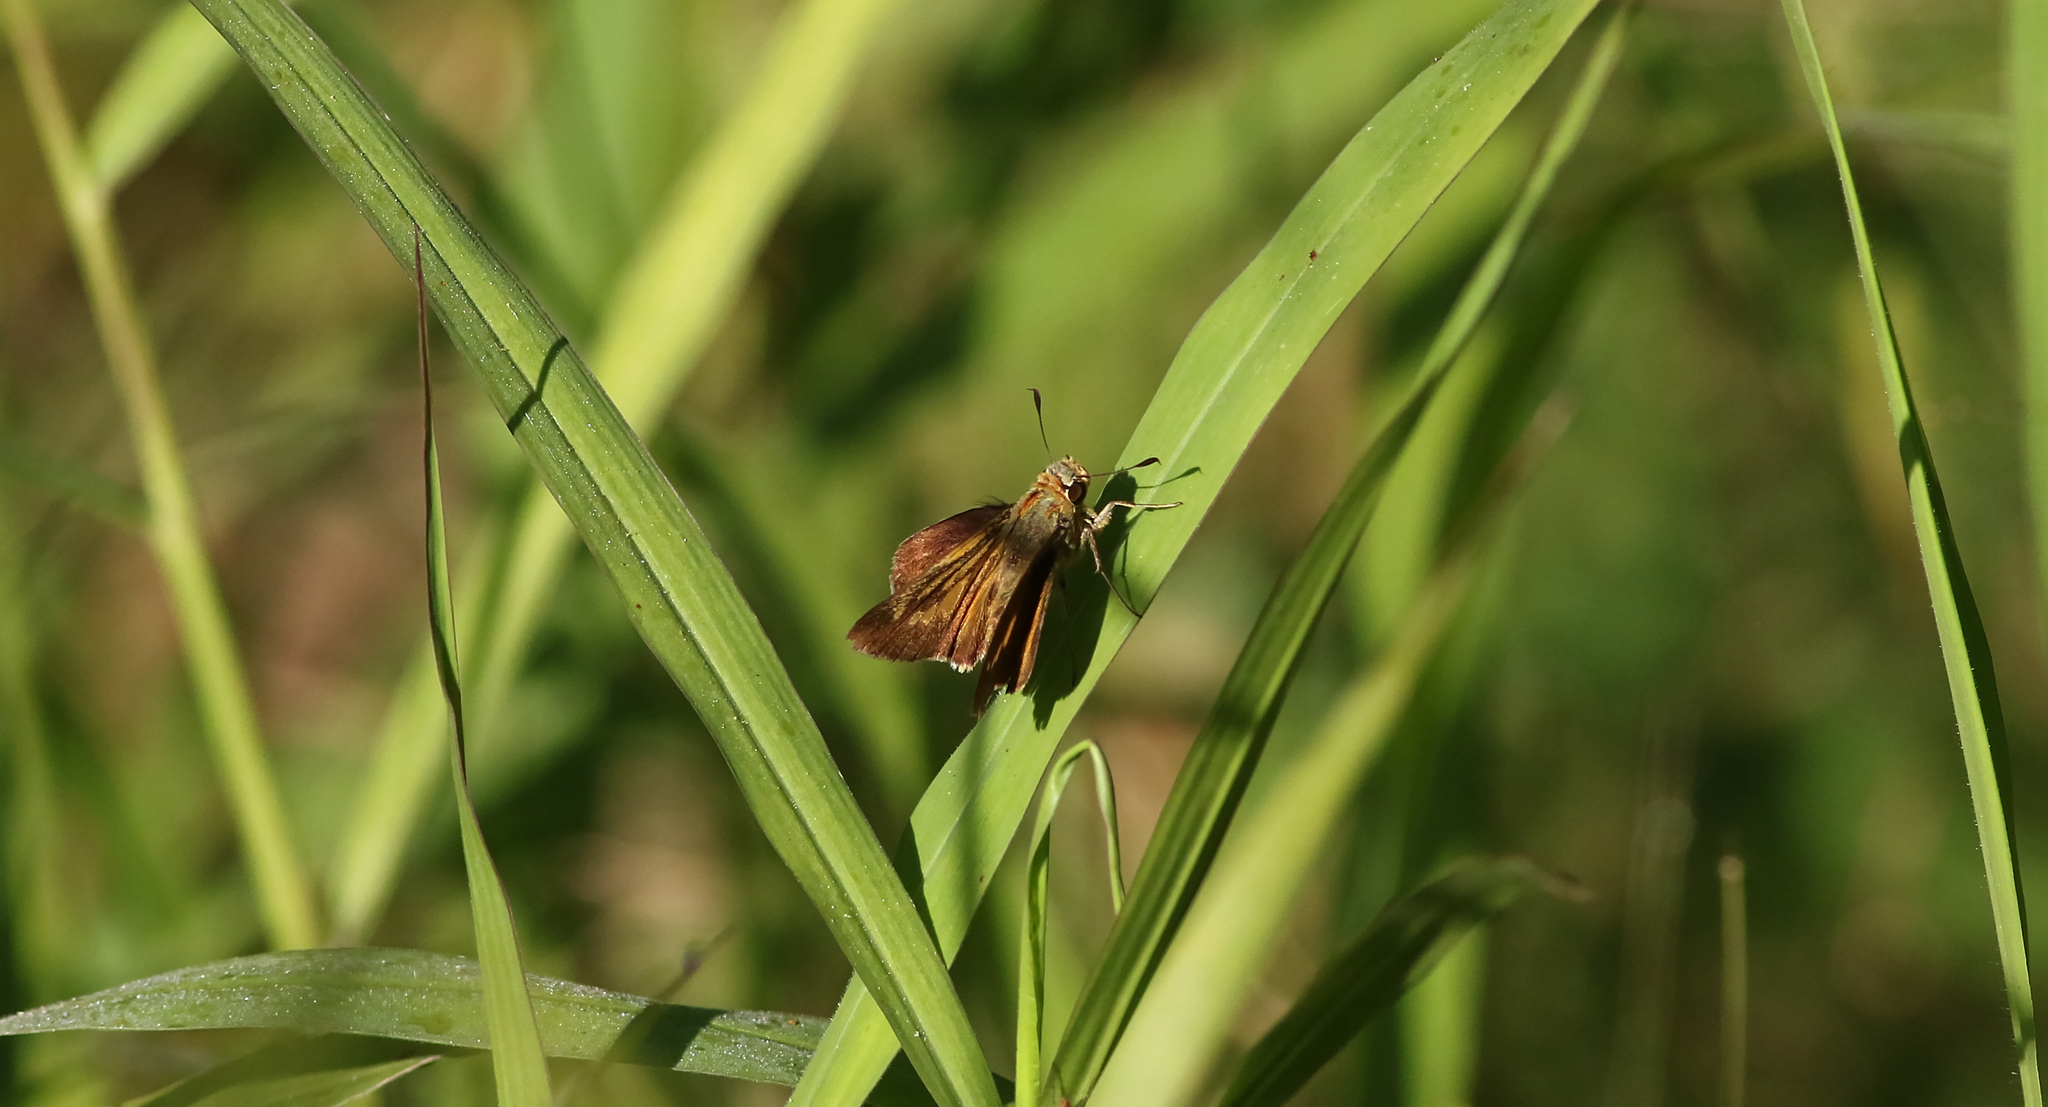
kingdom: Animalia
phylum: Arthropoda
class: Insecta
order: Lepidoptera
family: Hesperiidae
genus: Parnara
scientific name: Parnara amalia
